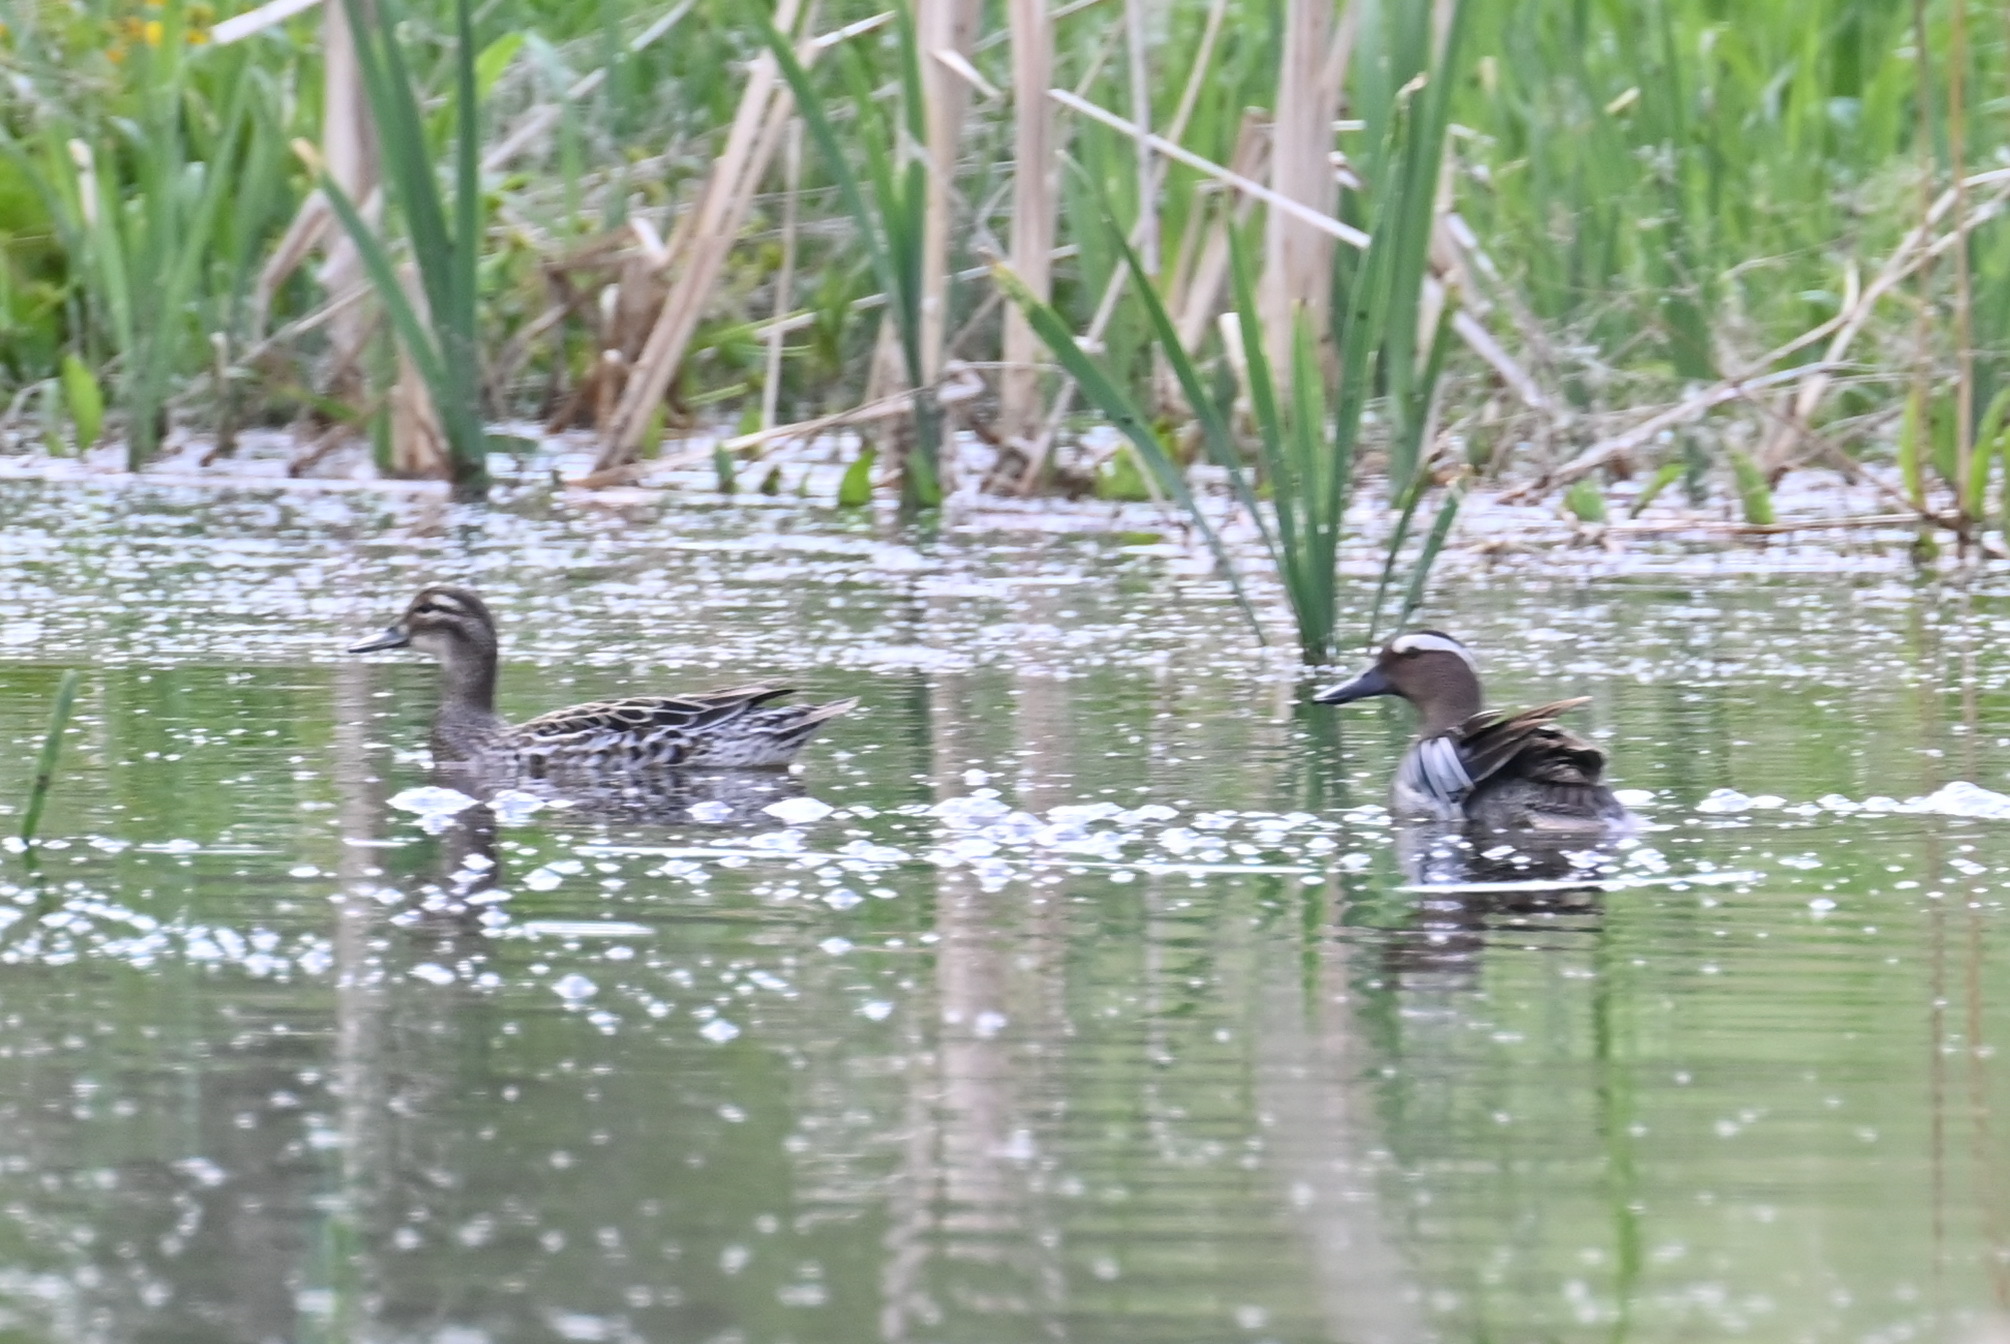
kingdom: Animalia
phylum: Chordata
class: Aves
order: Anseriformes
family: Anatidae
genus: Spatula
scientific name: Spatula querquedula
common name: Garganey
